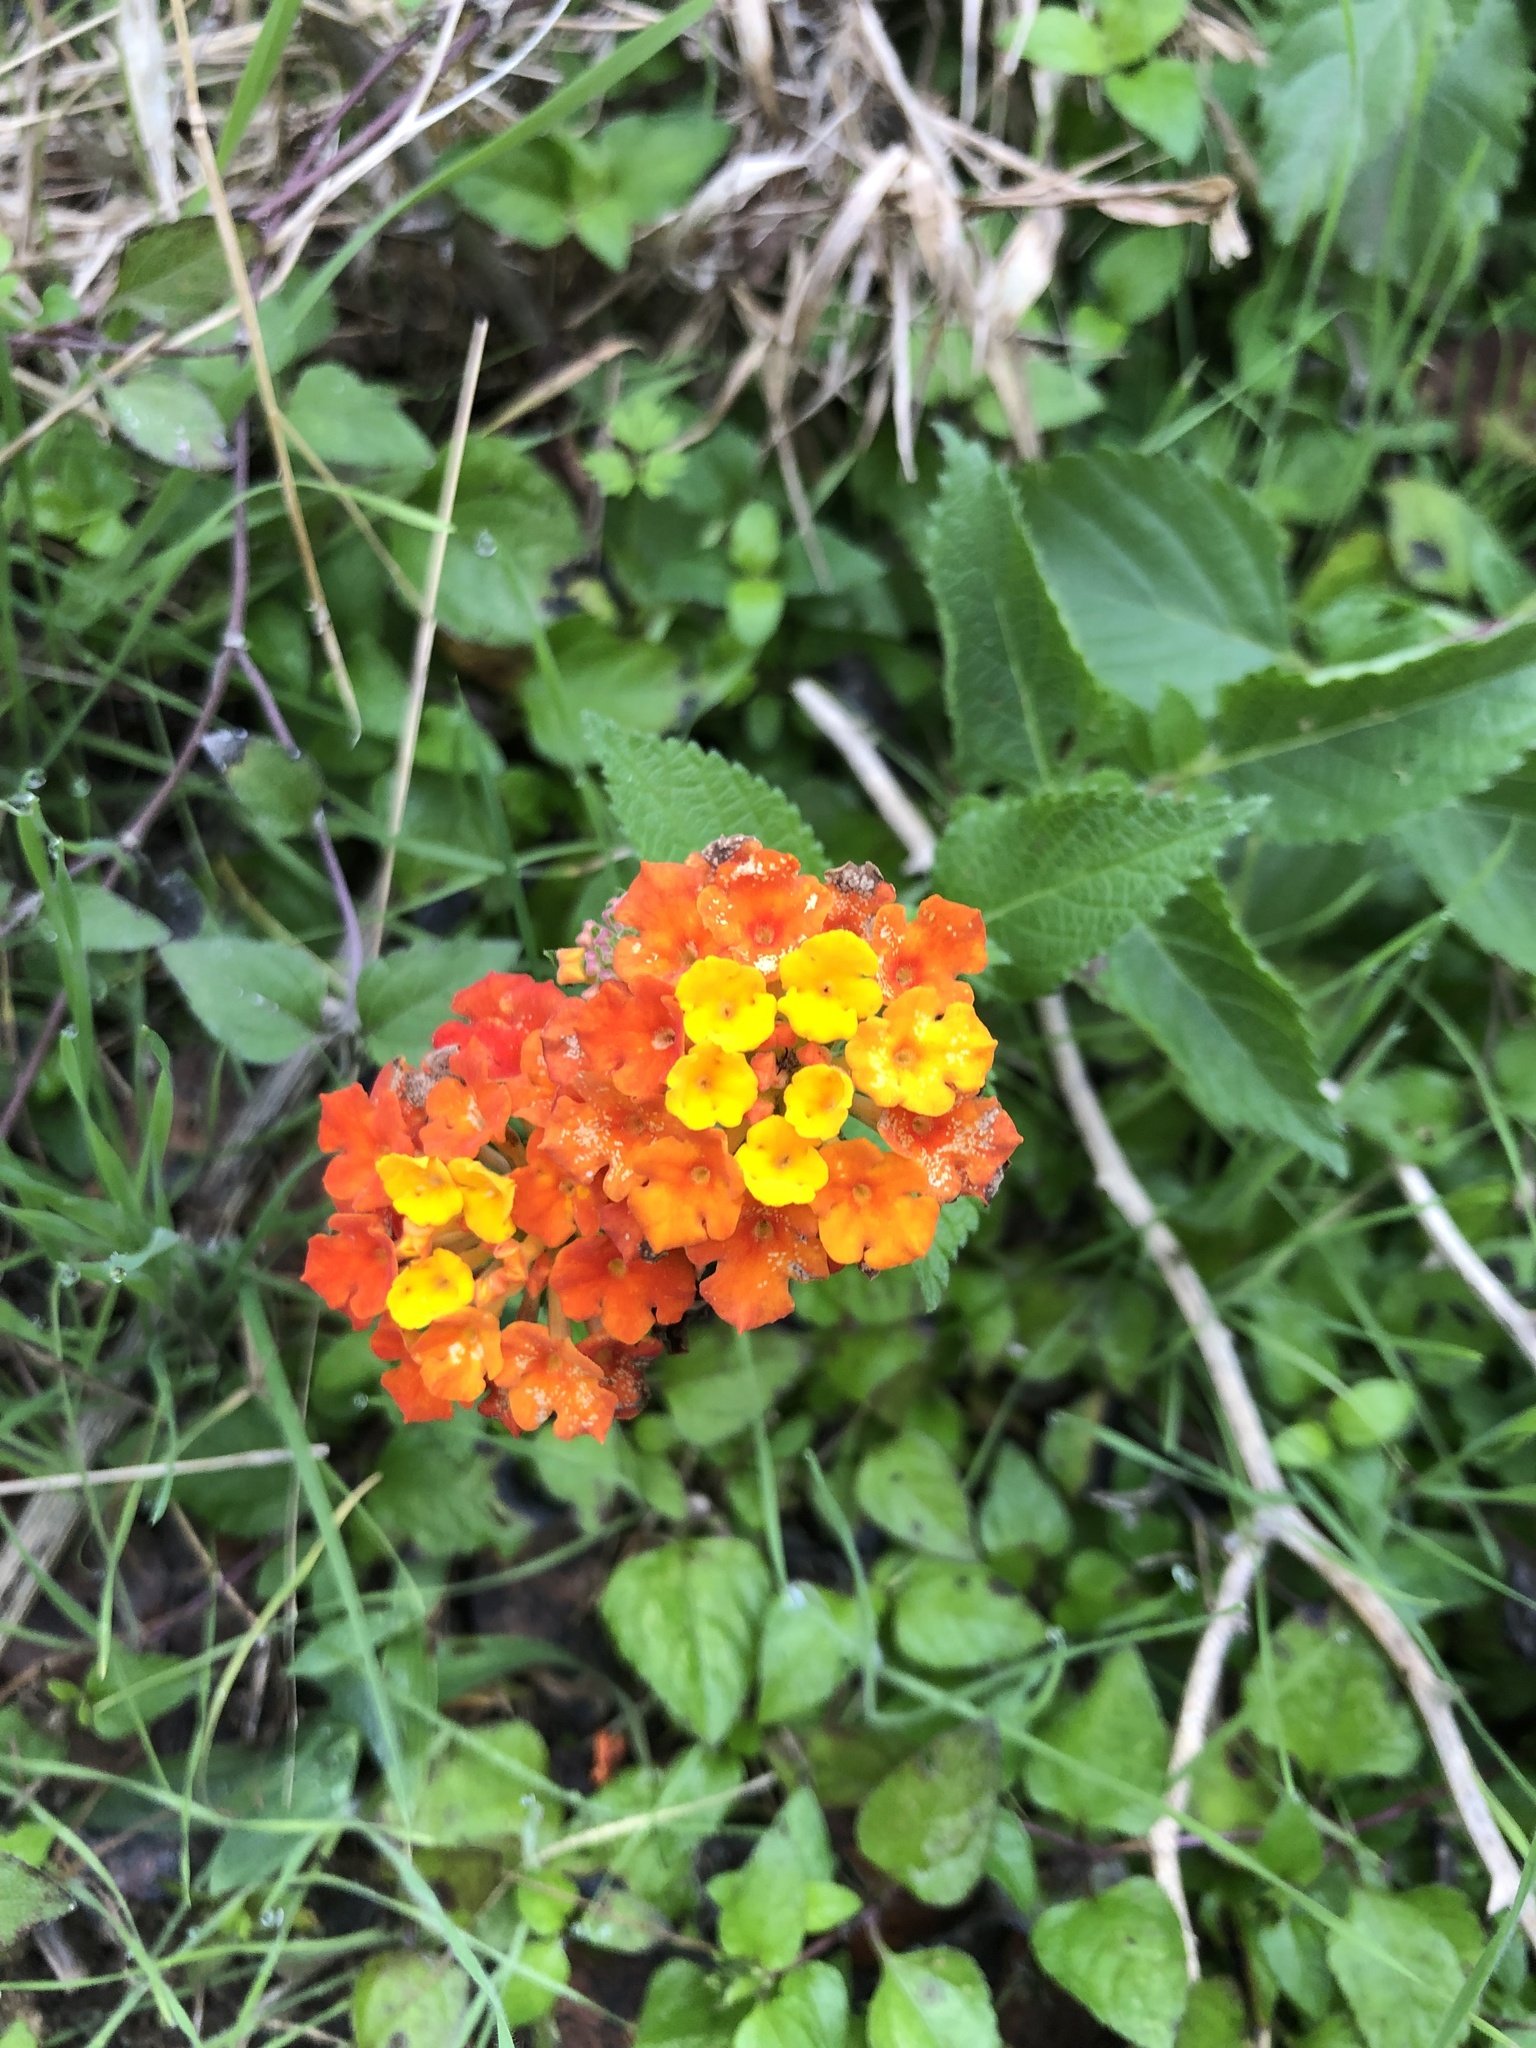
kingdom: Plantae
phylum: Tracheophyta
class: Magnoliopsida
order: Lamiales
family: Verbenaceae
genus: Lantana
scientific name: Lantana urticoides
